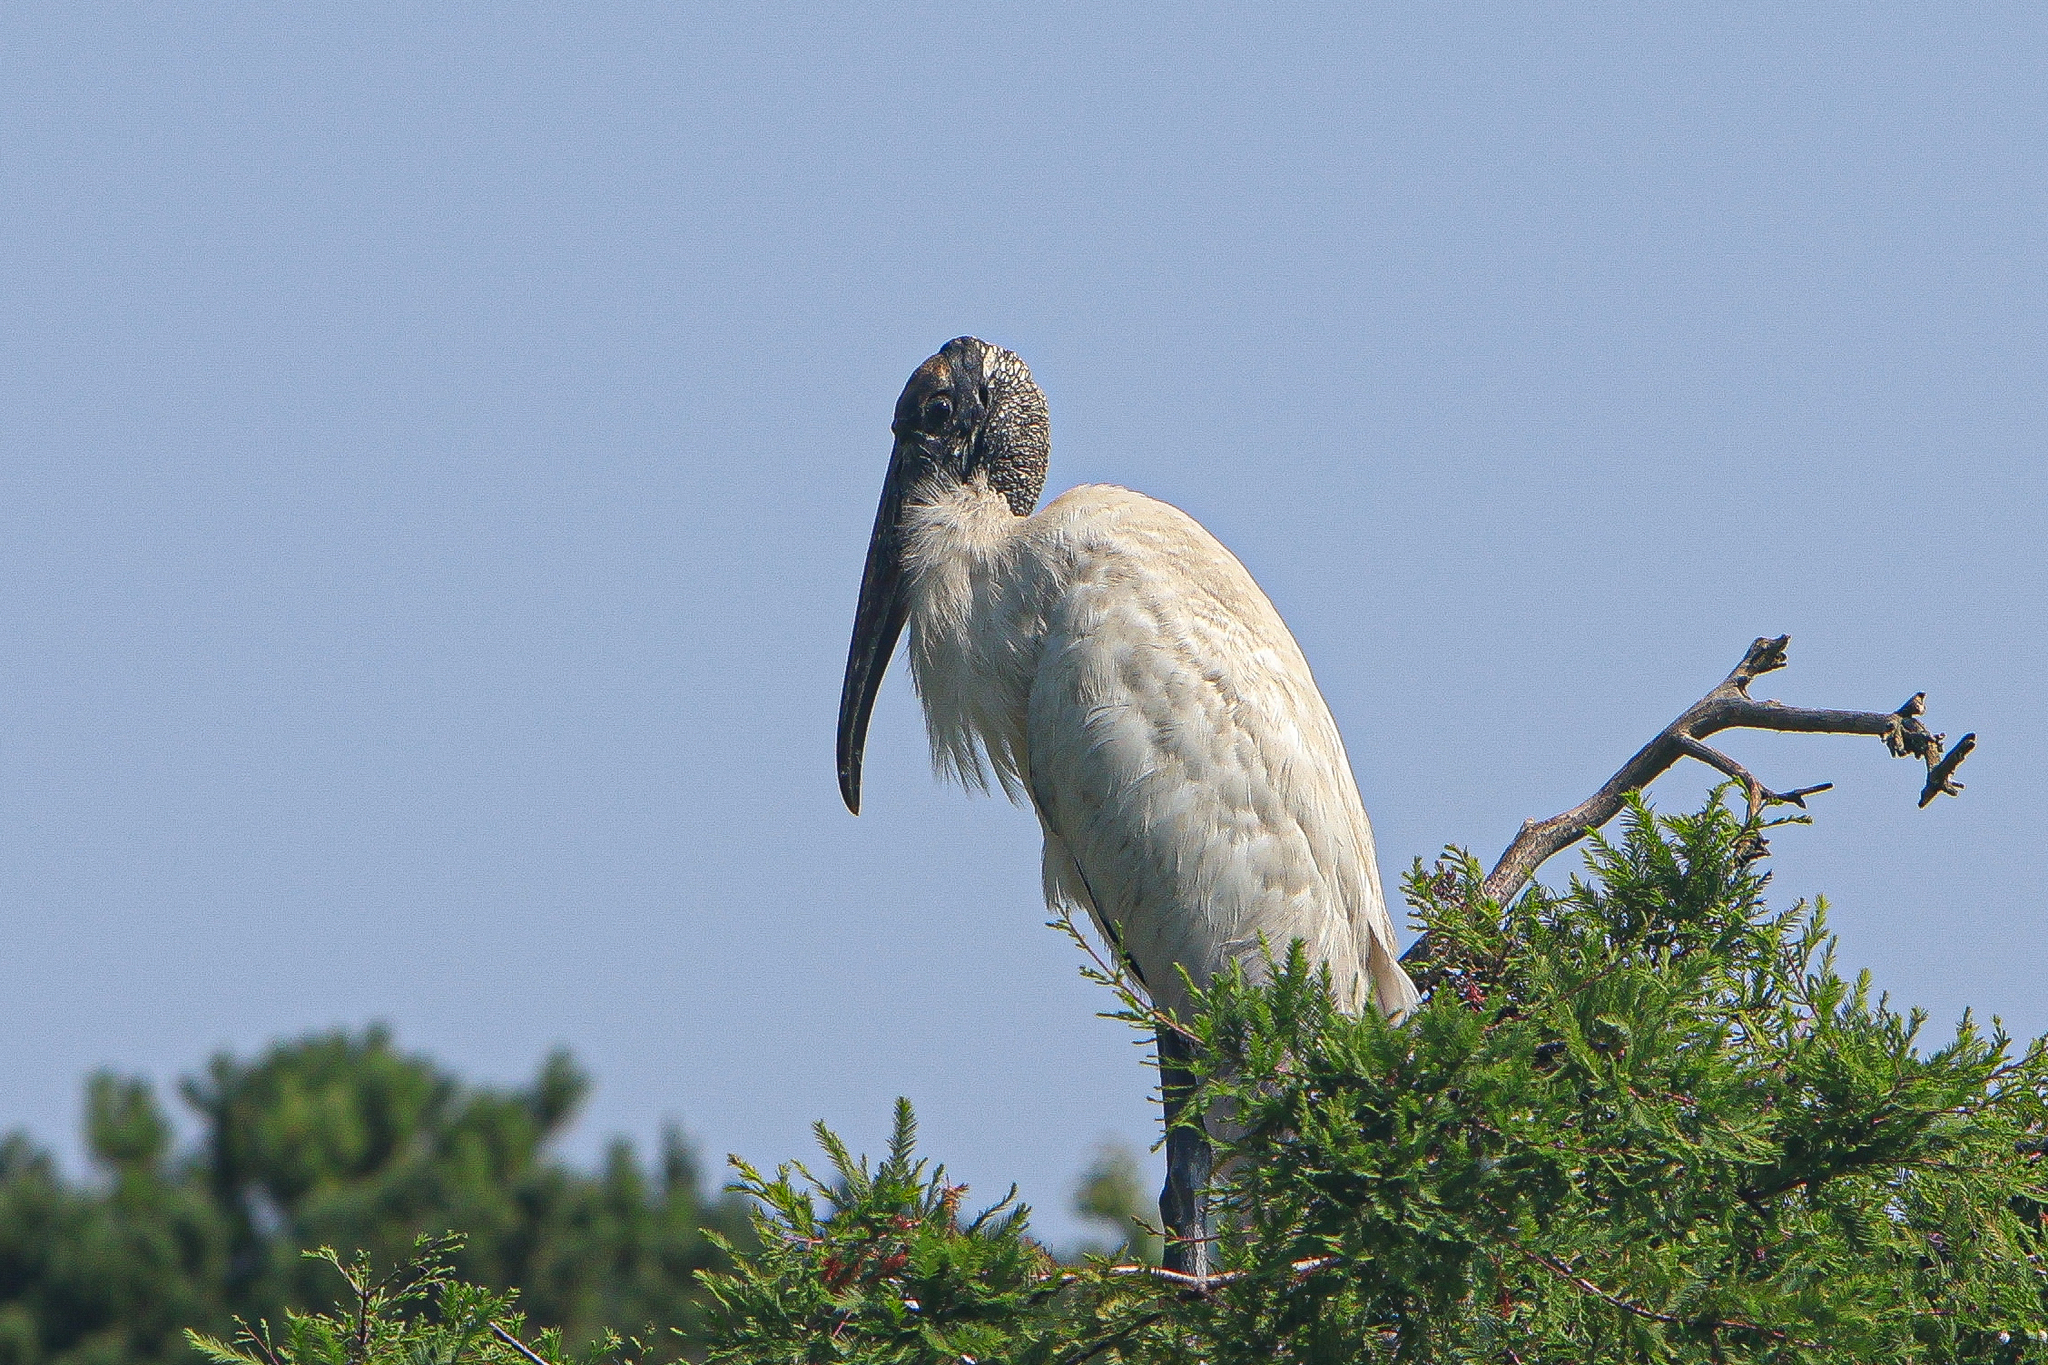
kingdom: Animalia
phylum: Chordata
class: Aves
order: Ciconiiformes
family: Ciconiidae
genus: Mycteria
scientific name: Mycteria americana
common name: Wood stork
